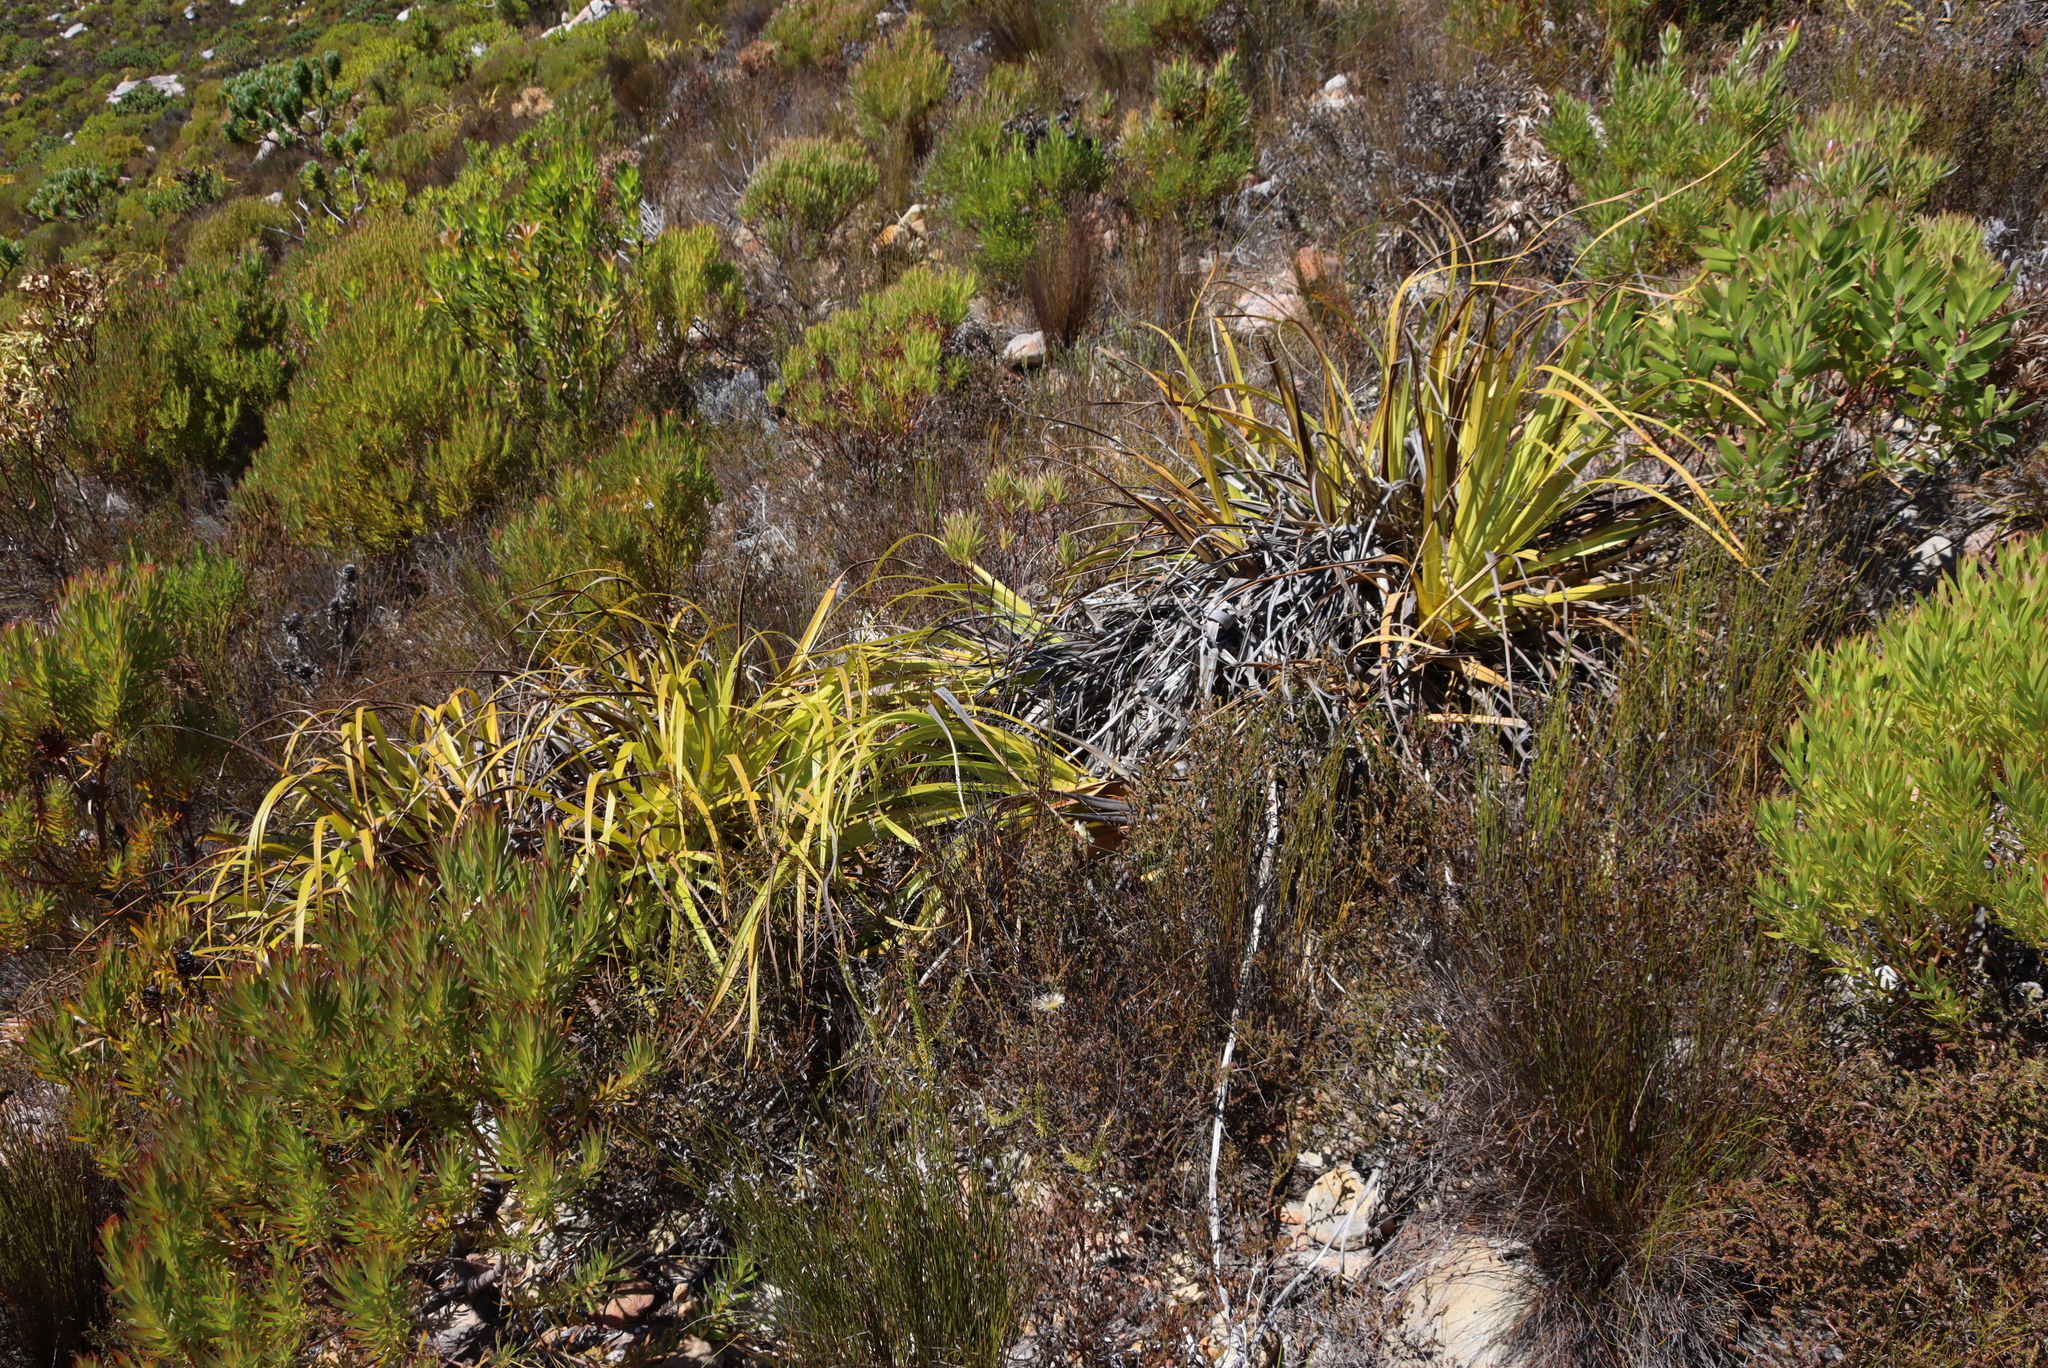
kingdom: Plantae
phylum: Tracheophyta
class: Liliopsida
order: Poales
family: Cyperaceae
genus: Tetraria
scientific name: Tetraria thermalis
